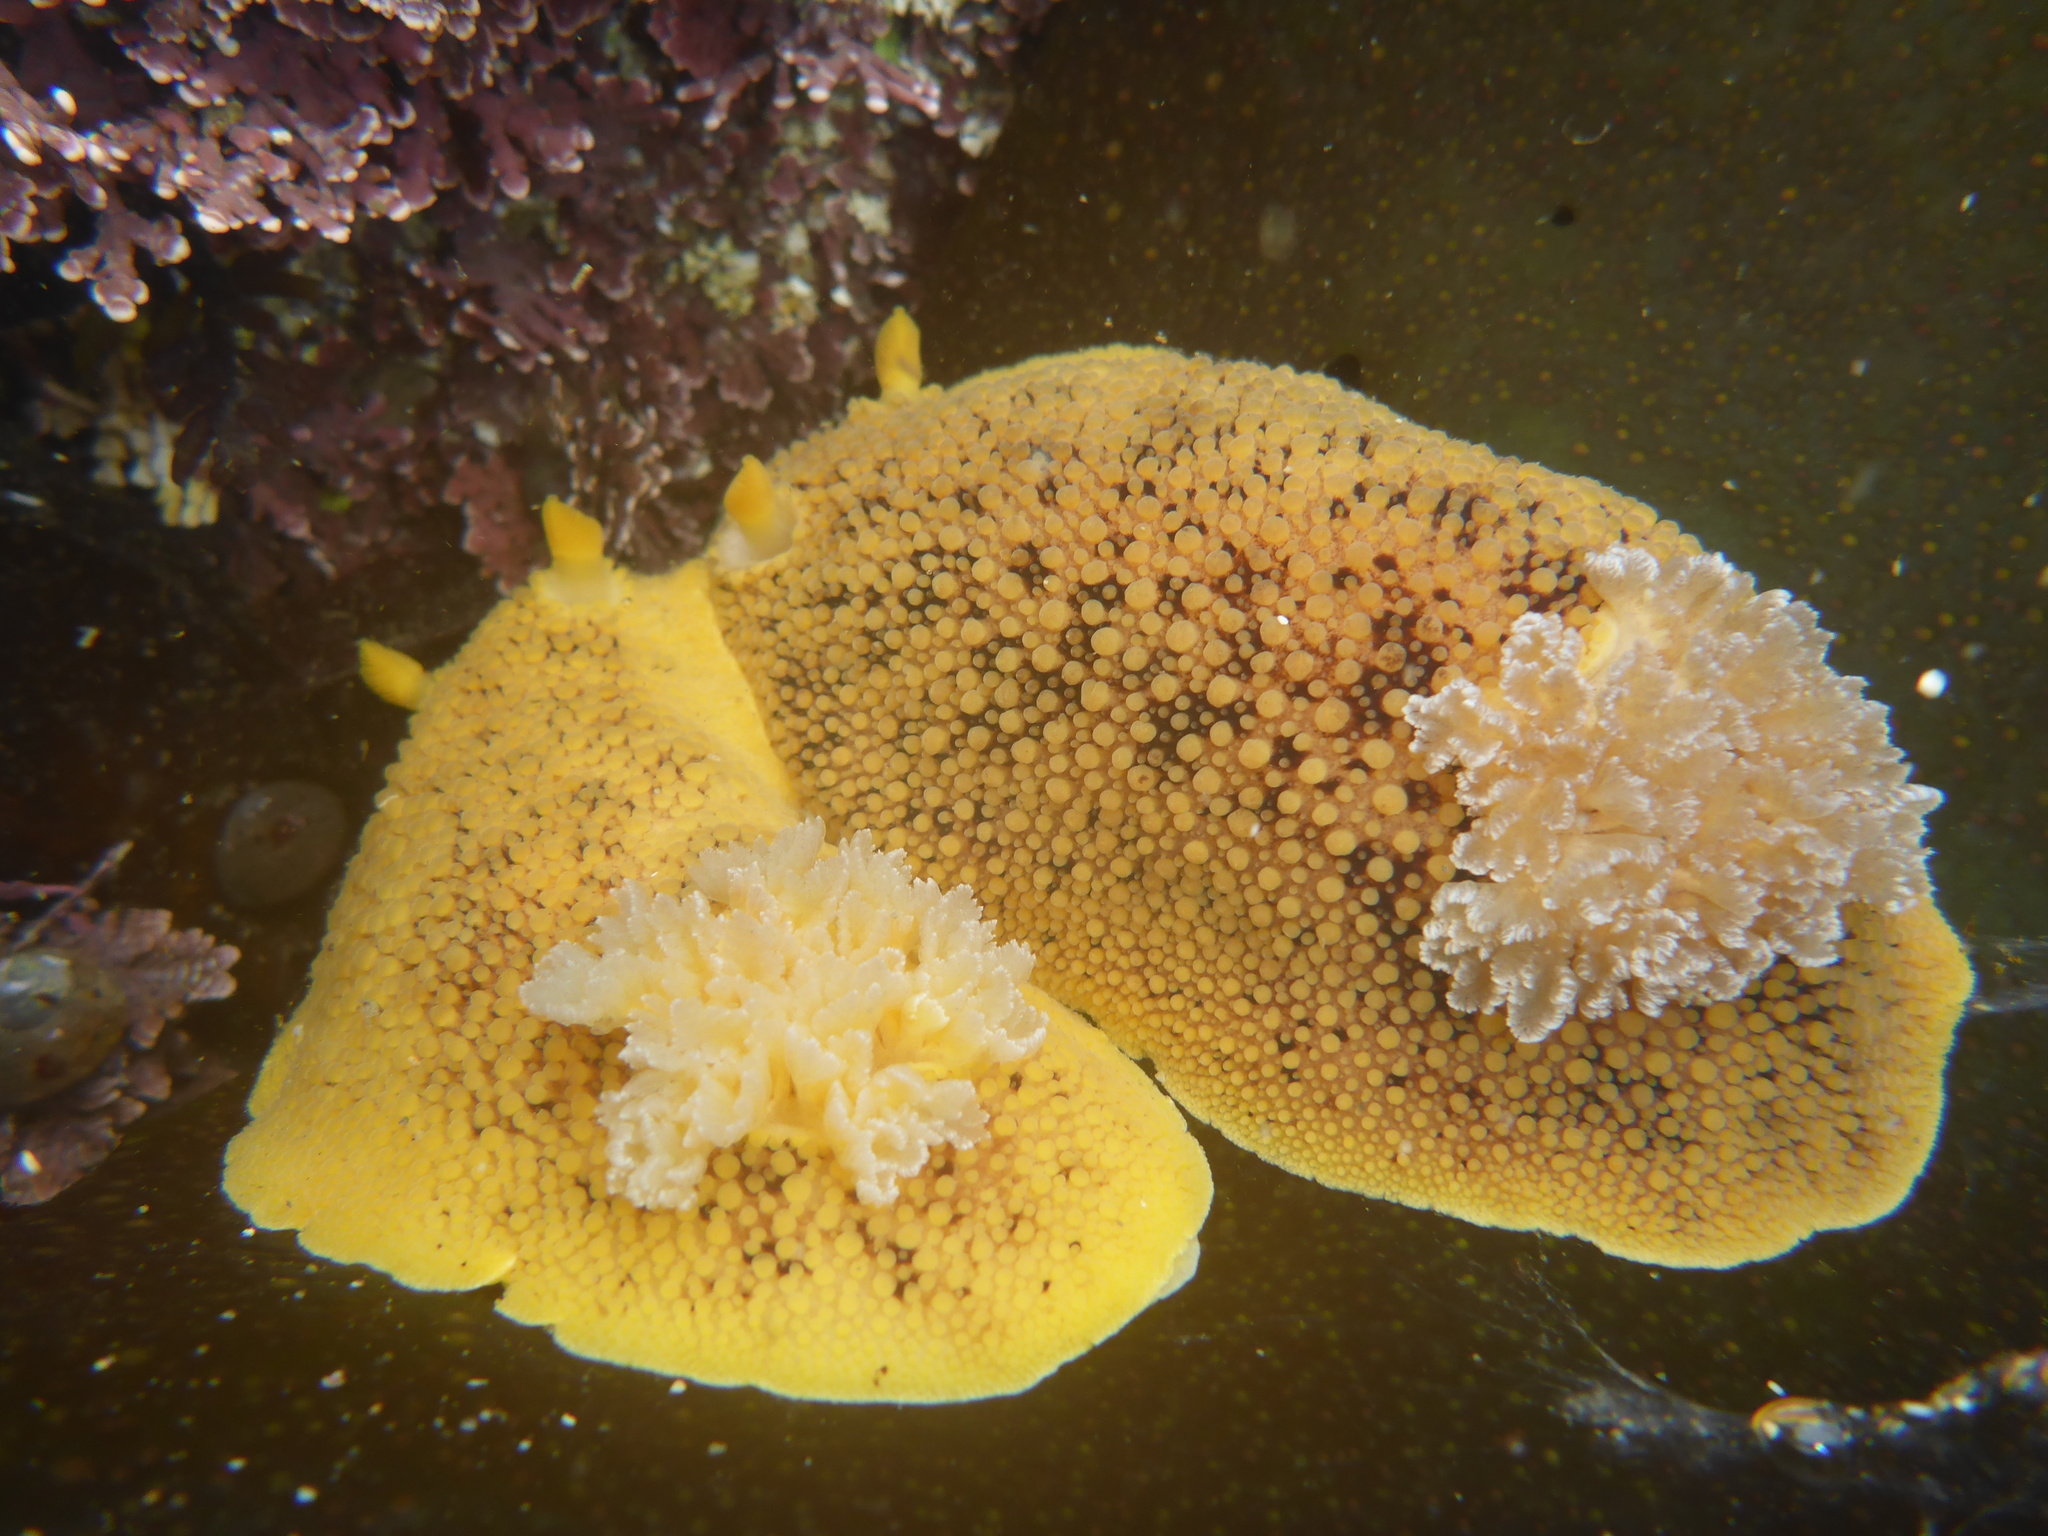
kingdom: Animalia
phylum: Mollusca
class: Gastropoda
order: Nudibranchia
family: Discodorididae
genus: Peltodoris
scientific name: Peltodoris nobilis
